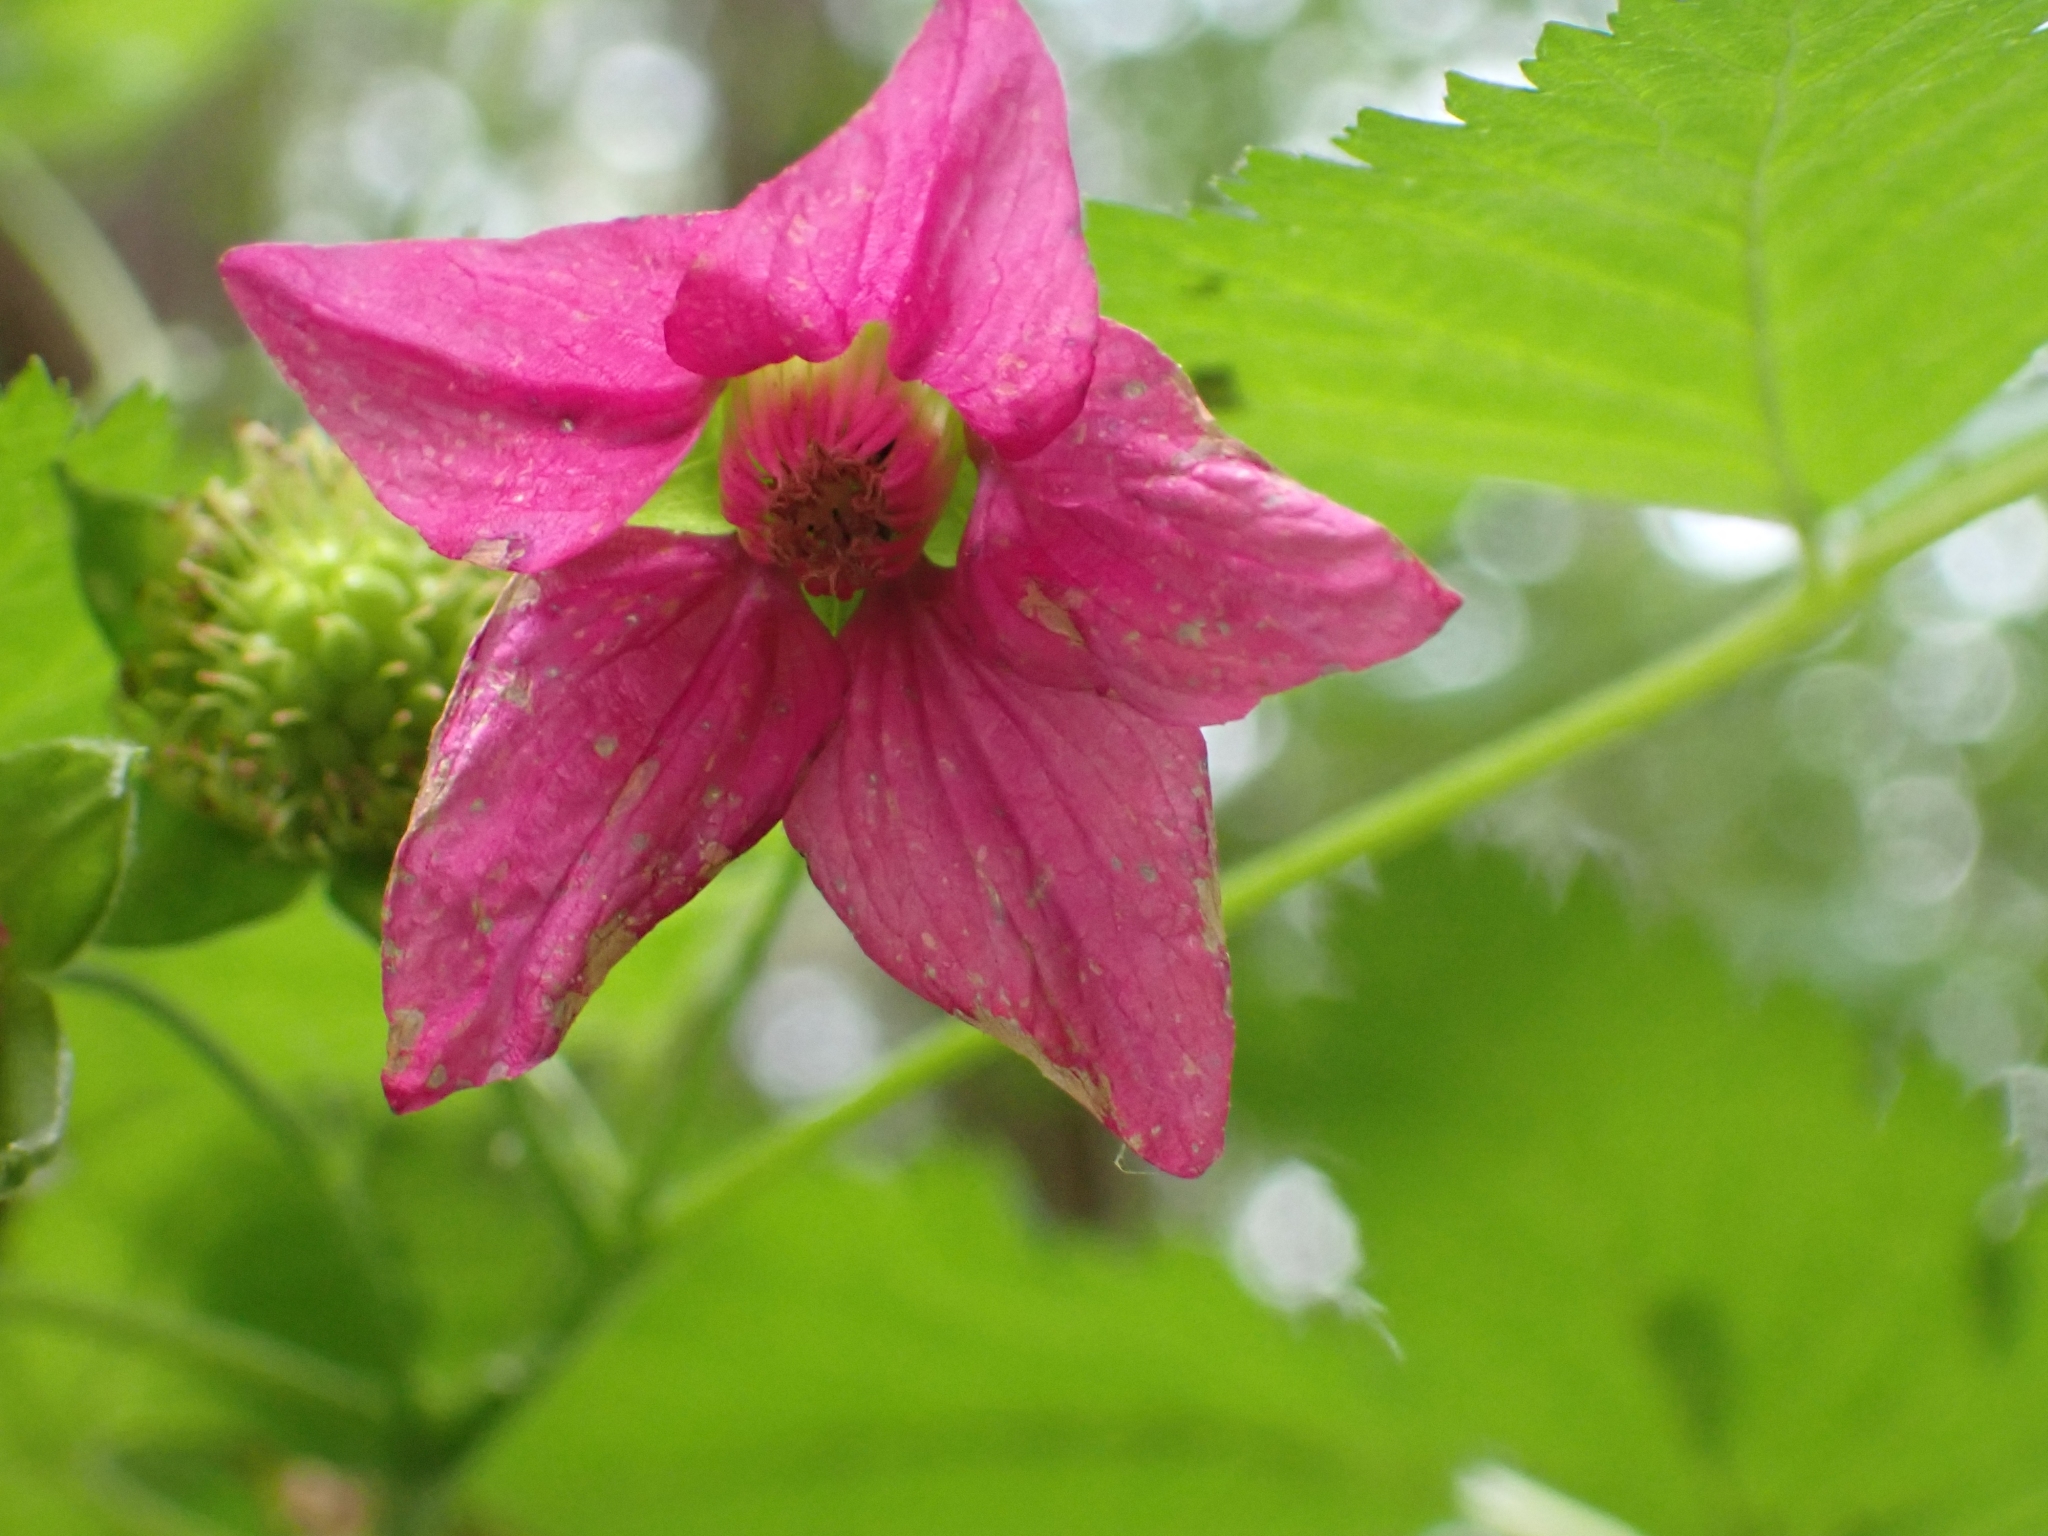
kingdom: Plantae
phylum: Tracheophyta
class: Magnoliopsida
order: Rosales
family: Rosaceae
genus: Rubus
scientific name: Rubus spectabilis
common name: Salmonberry
